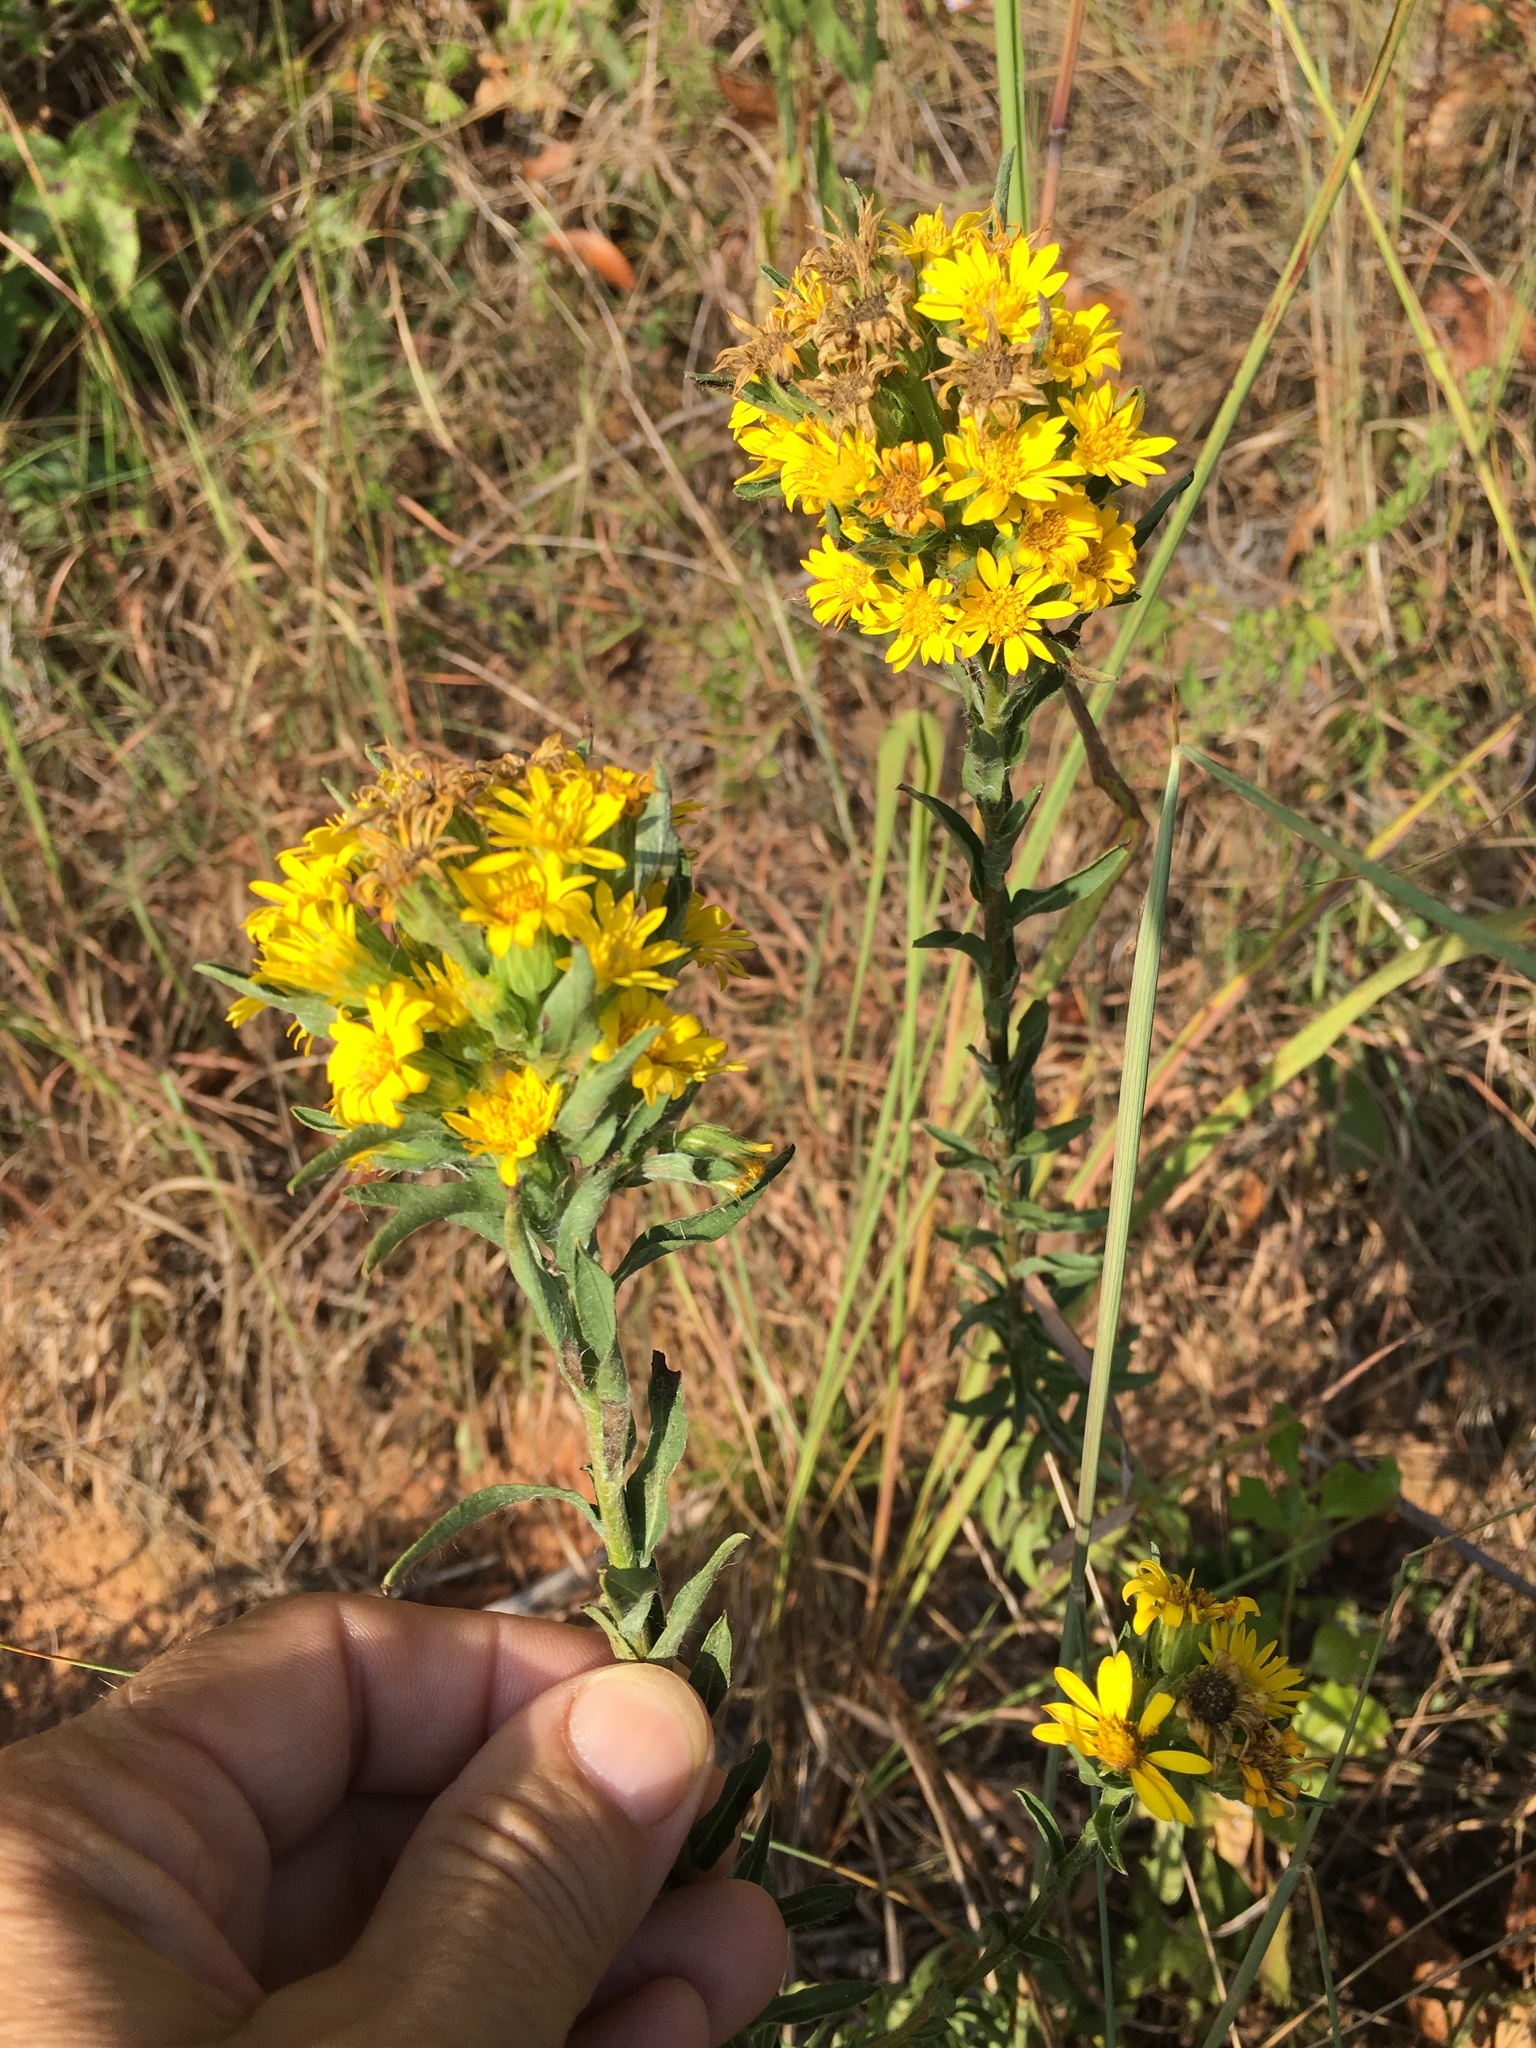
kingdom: Plantae
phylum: Tracheophyta
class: Magnoliopsida
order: Asterales
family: Asteraceae
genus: Chrysopsis
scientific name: Chrysopsis mariana
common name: Maryland golden-aster
